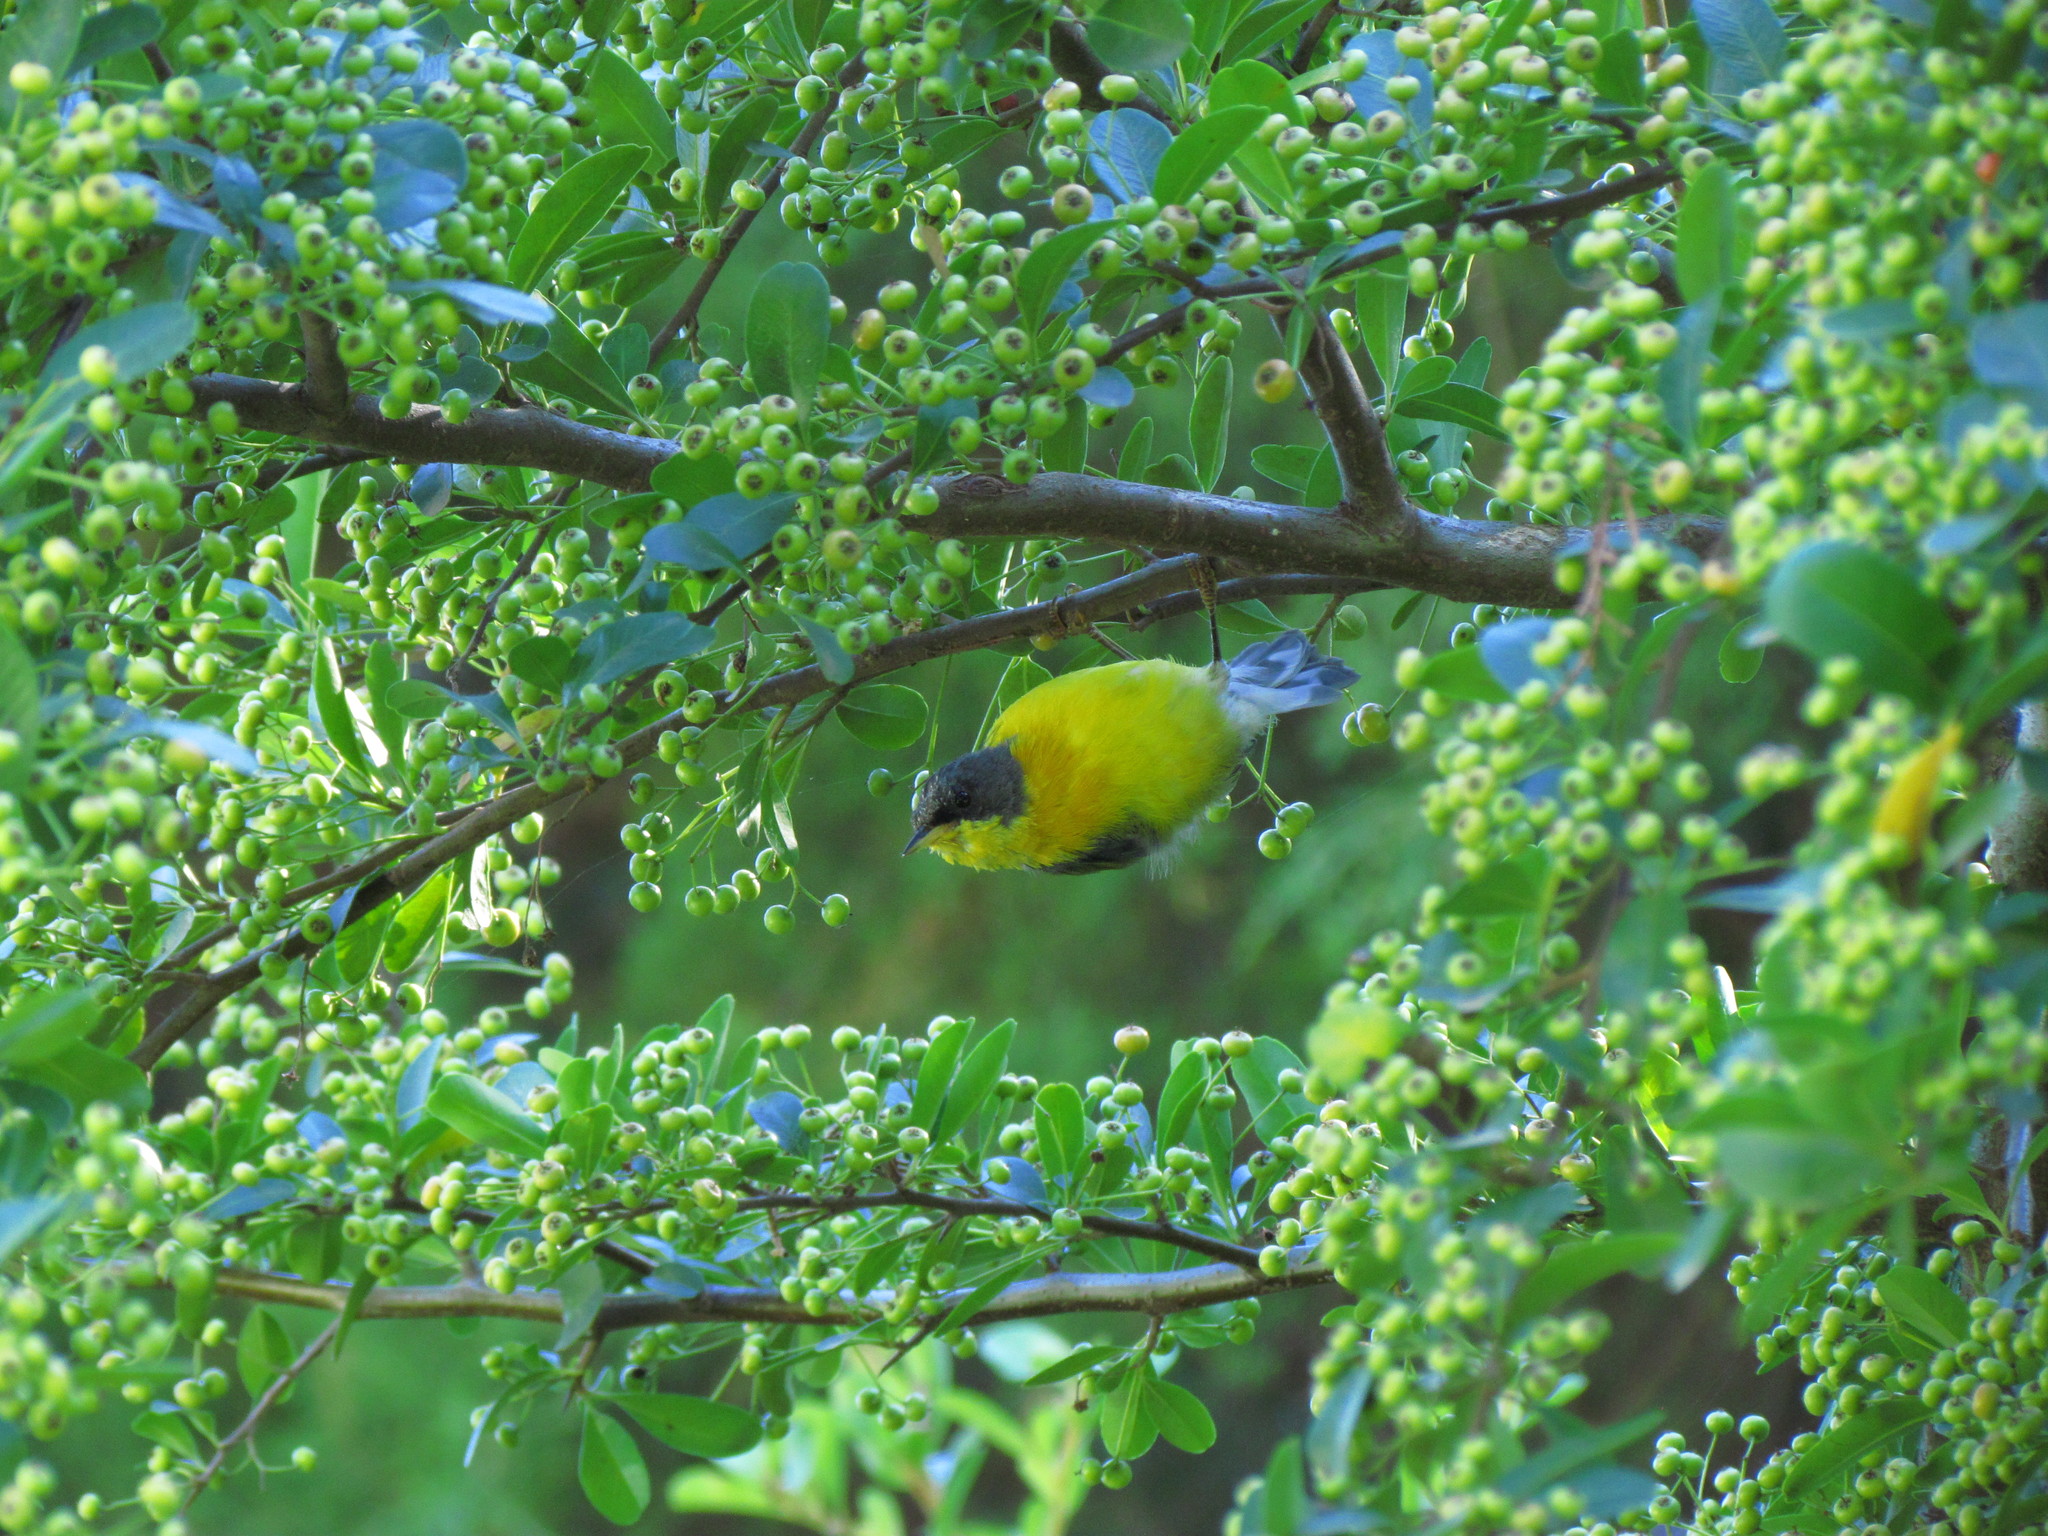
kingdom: Animalia
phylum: Chordata
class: Aves
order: Passeriformes
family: Parulidae
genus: Setophaga
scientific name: Setophaga pitiayumi
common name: Tropical parula
